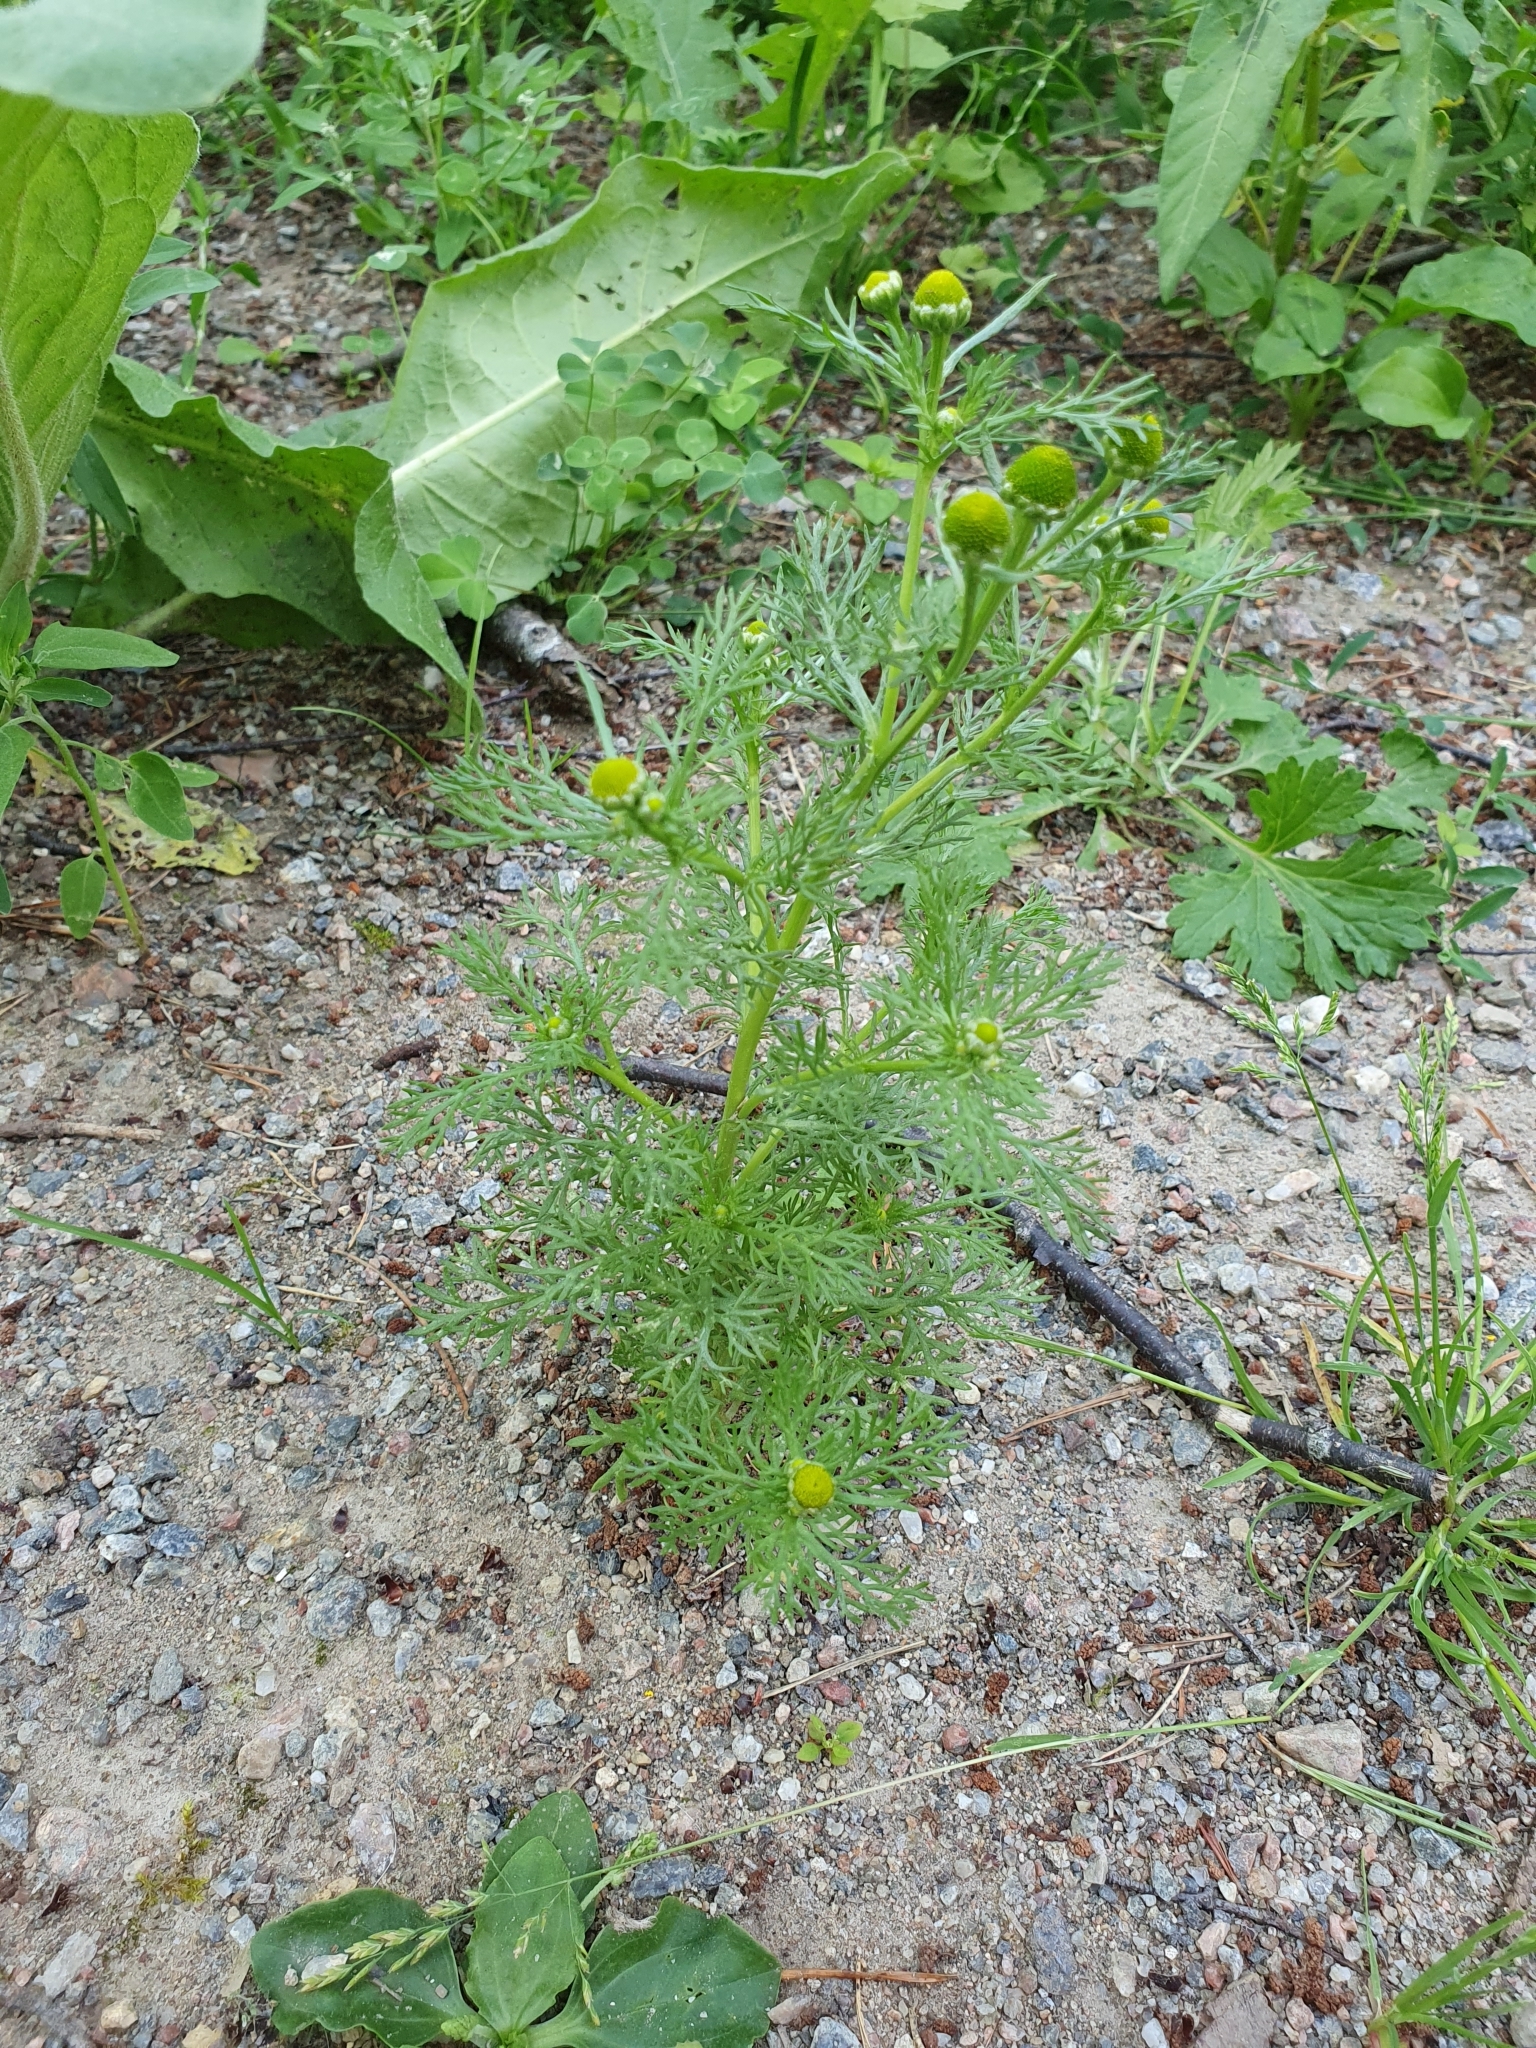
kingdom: Plantae
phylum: Tracheophyta
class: Magnoliopsida
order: Asterales
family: Asteraceae
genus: Matricaria
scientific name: Matricaria discoidea
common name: Disc mayweed
